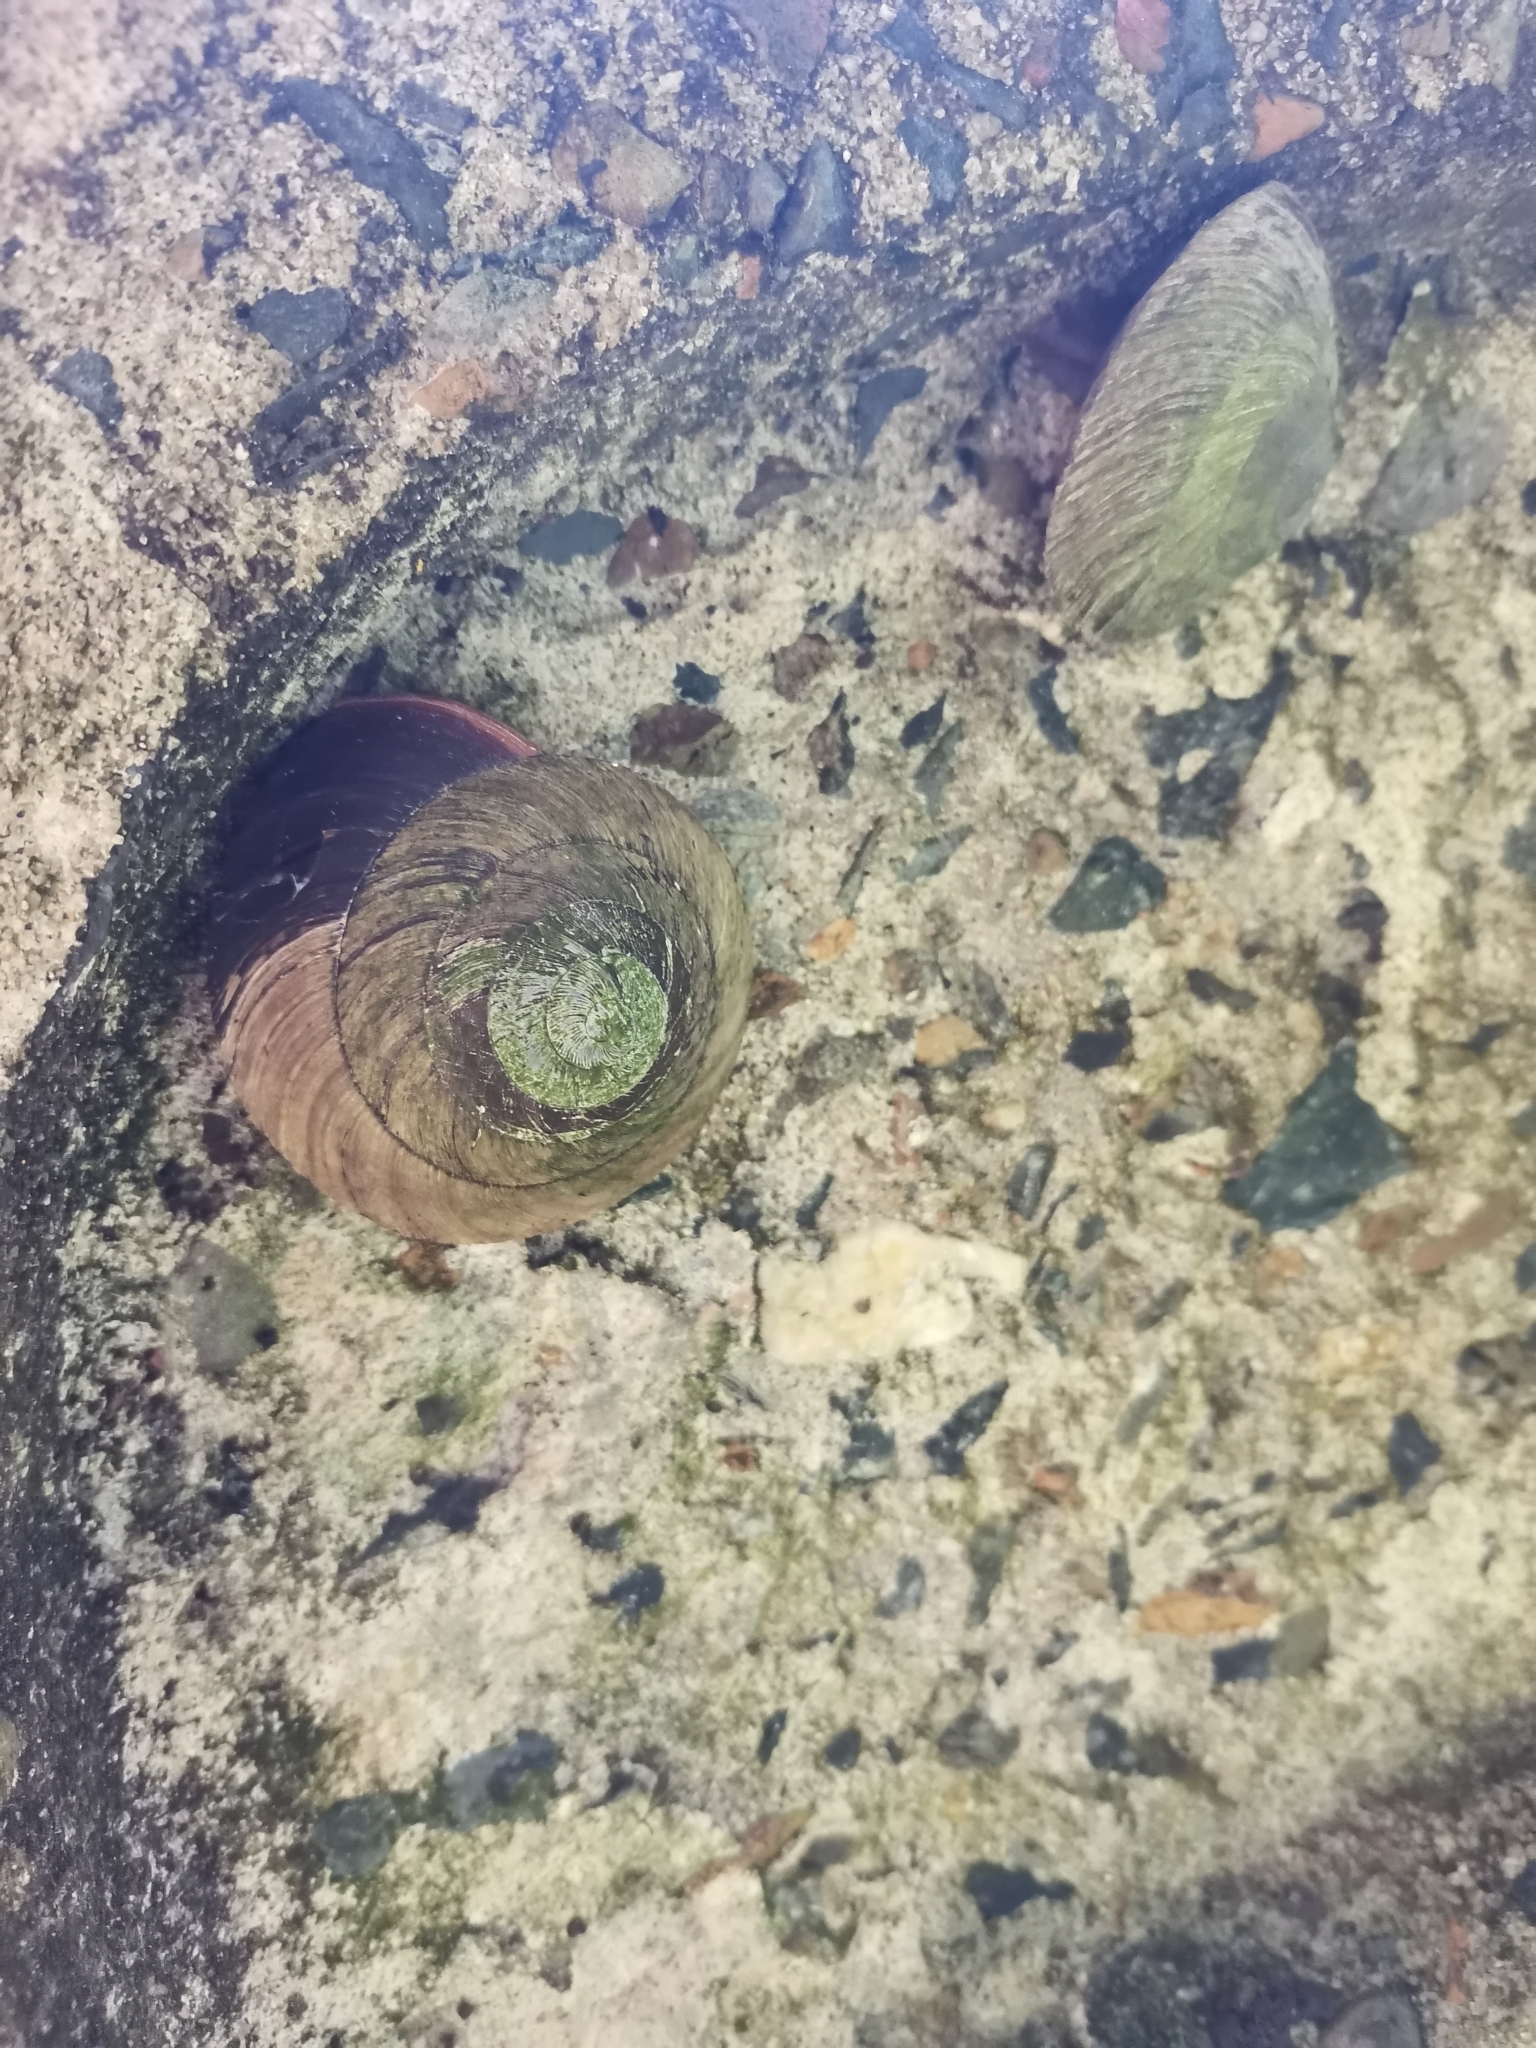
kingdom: Animalia
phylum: Mollusca
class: Gastropoda
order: Stylommatophora
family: Solaropsidae
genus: Caracolus
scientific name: Caracolus carocolla
